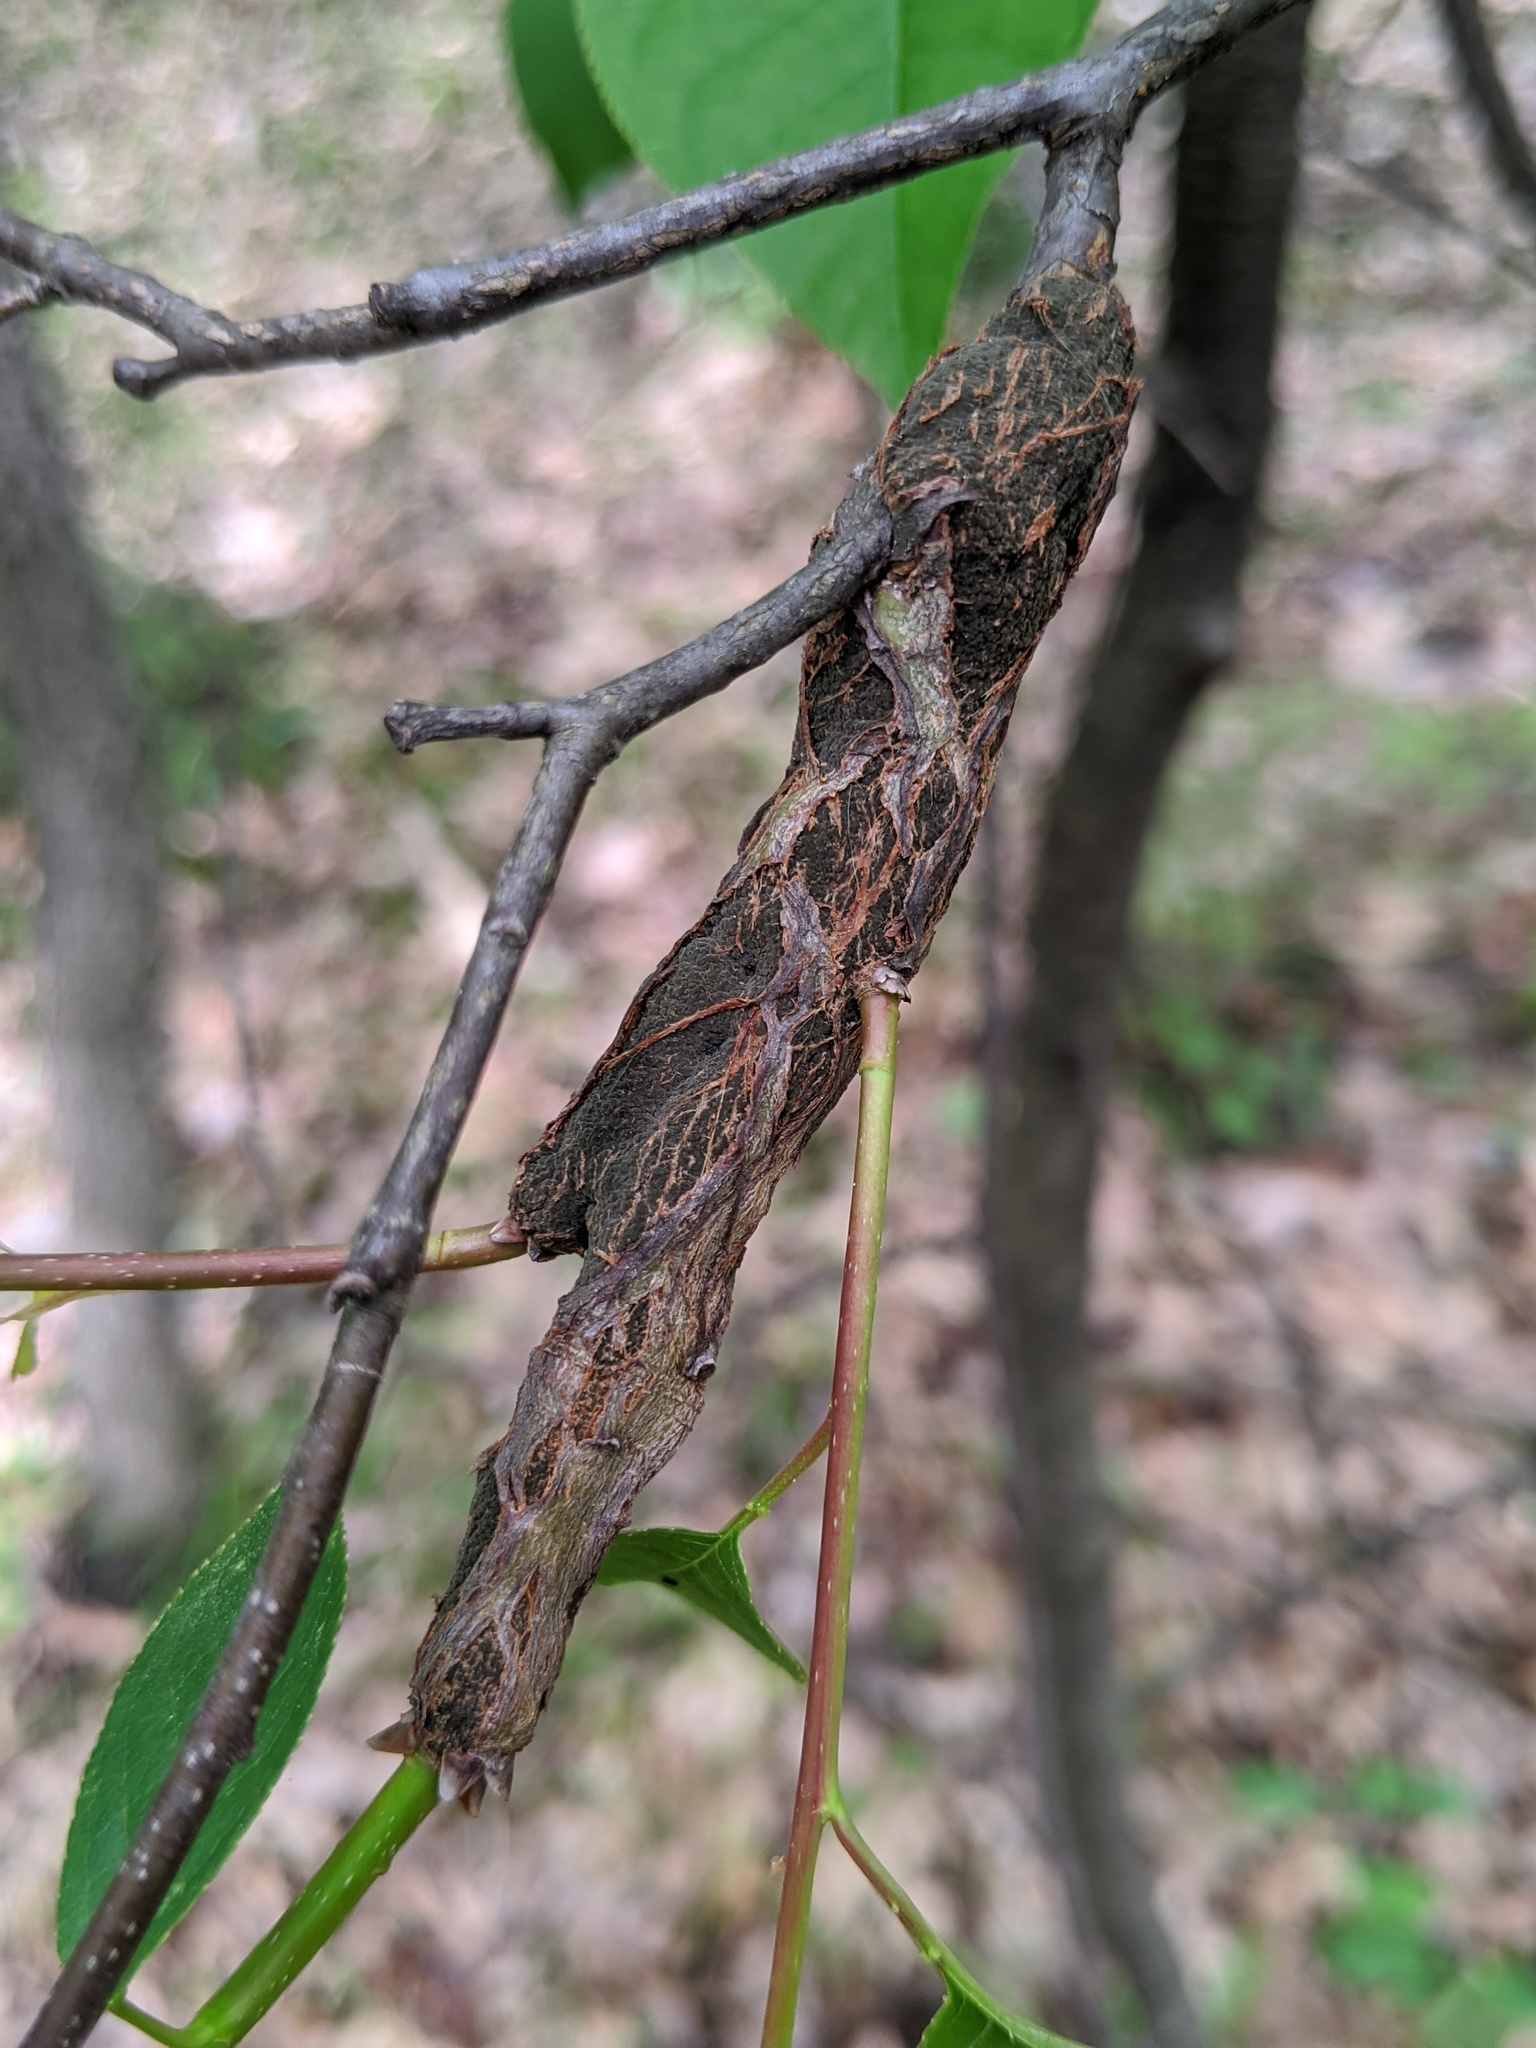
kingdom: Fungi
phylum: Ascomycota
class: Dothideomycetes
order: Venturiales
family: Venturiaceae
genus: Apiosporina
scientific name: Apiosporina morbosa
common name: Black knot
